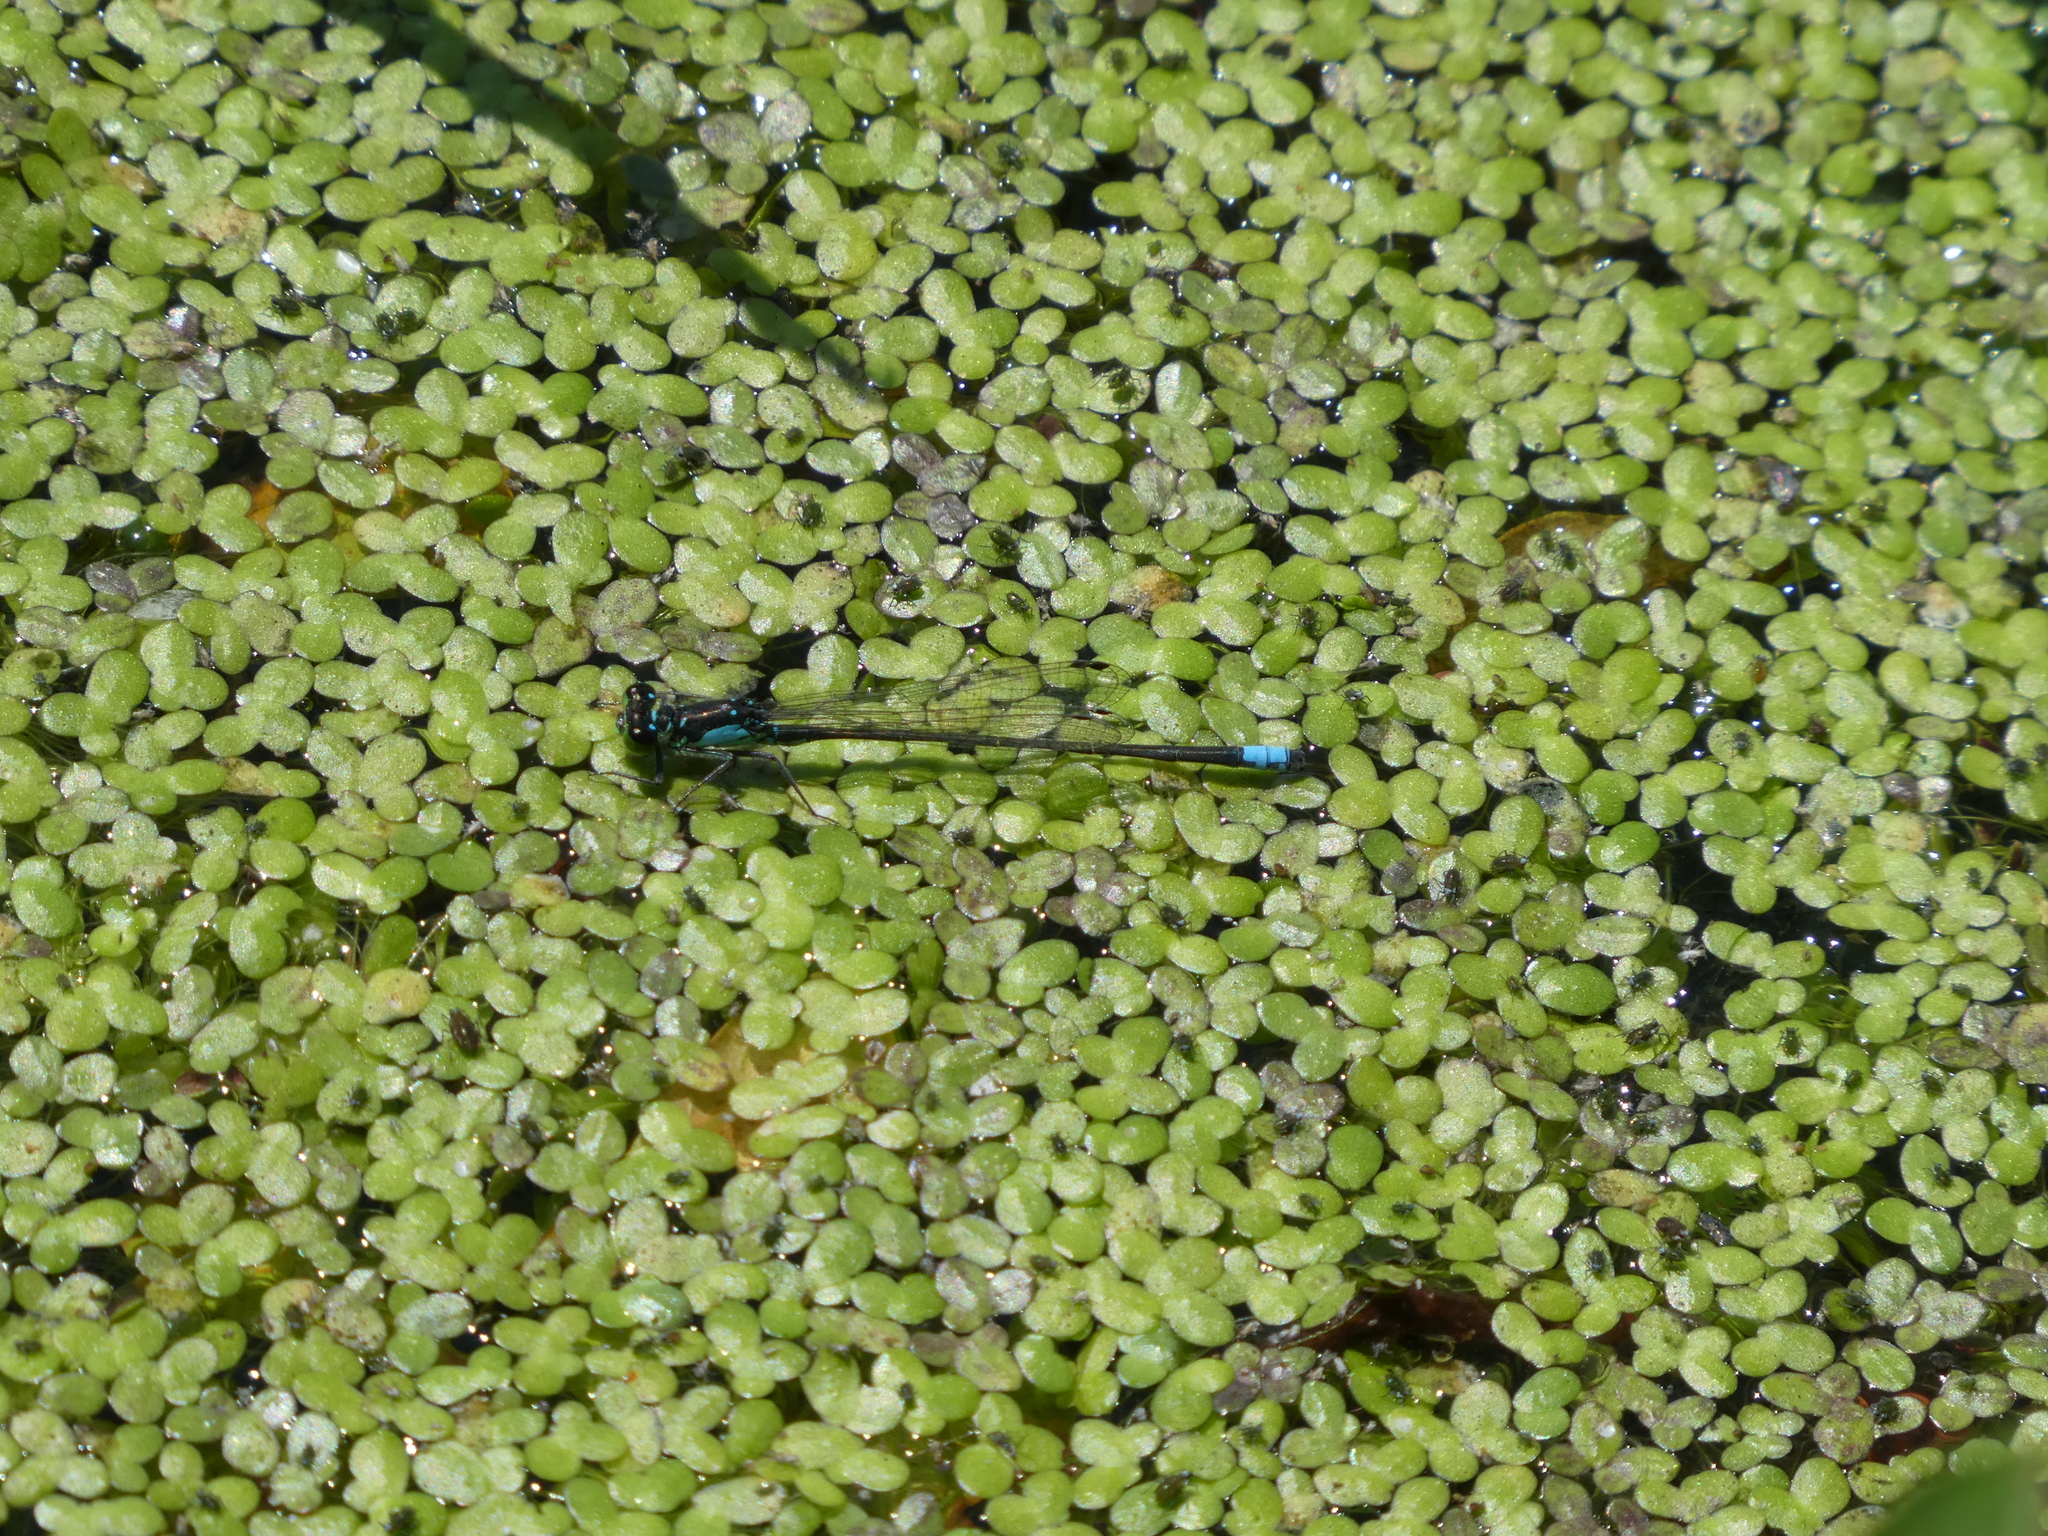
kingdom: Animalia
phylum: Arthropoda
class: Insecta
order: Odonata
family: Coenagrionidae
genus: Ischnura
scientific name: Ischnura cervula
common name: Pacific forktail
